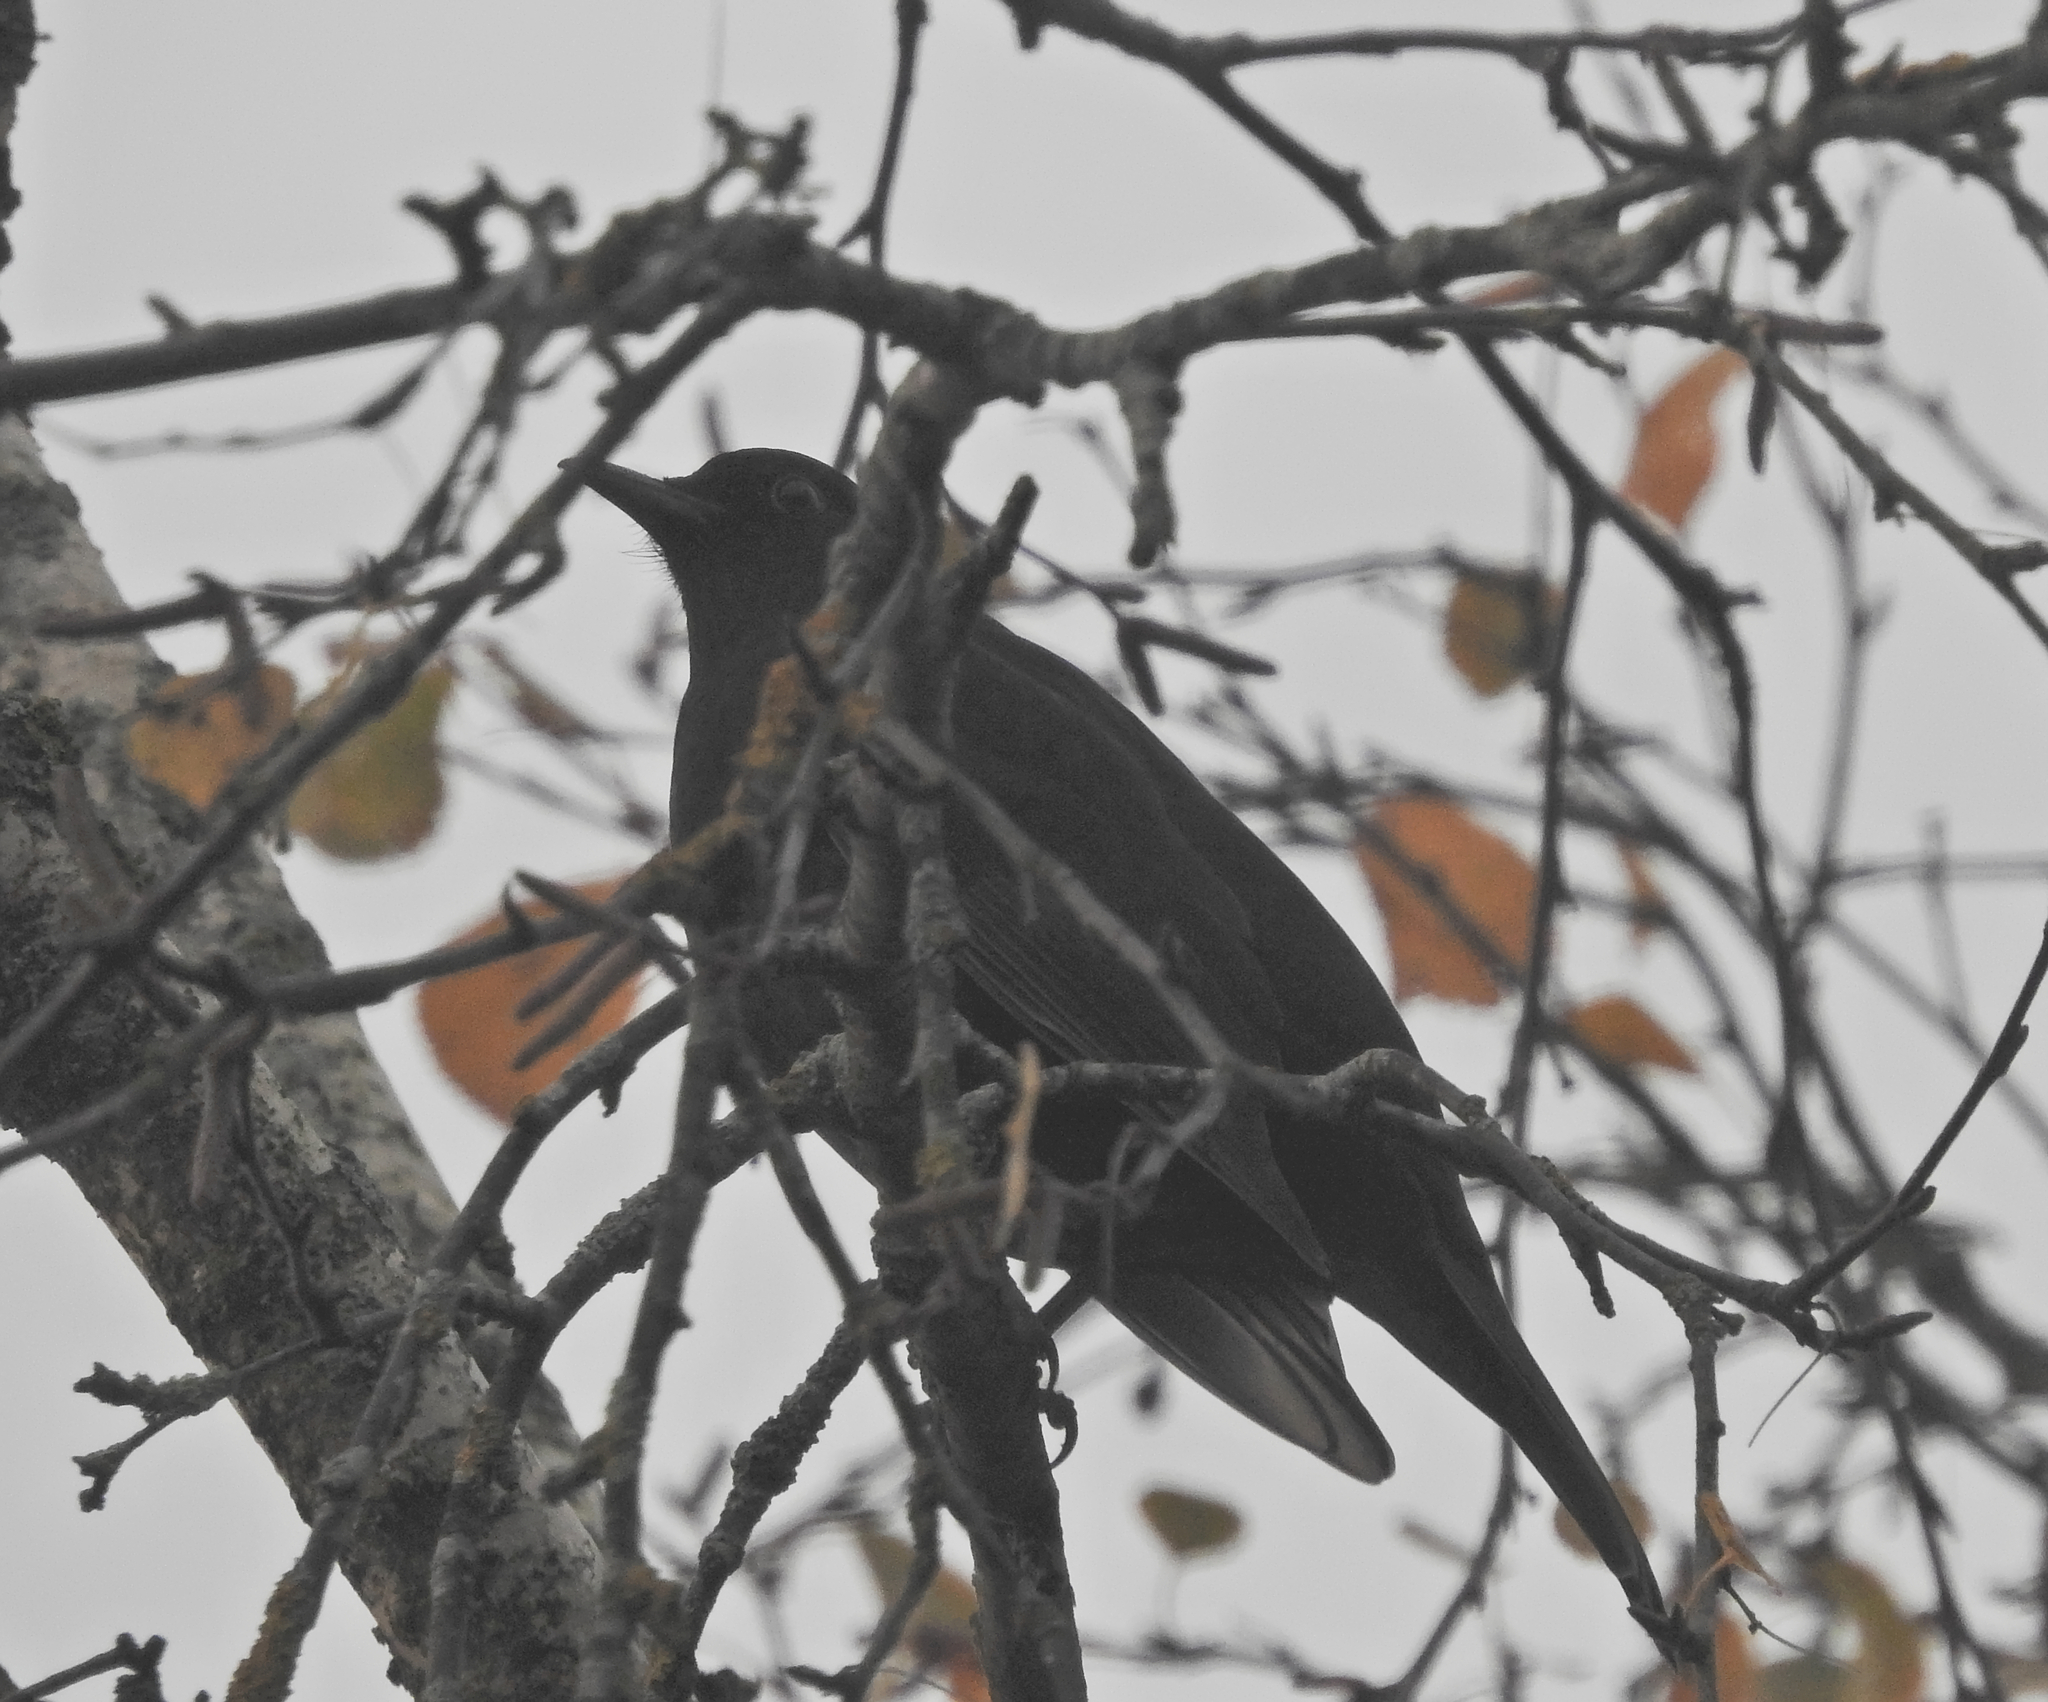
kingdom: Animalia
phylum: Chordata
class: Aves
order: Passeriformes
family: Turdidae
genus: Turdus
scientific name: Turdus merula
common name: Common blackbird
